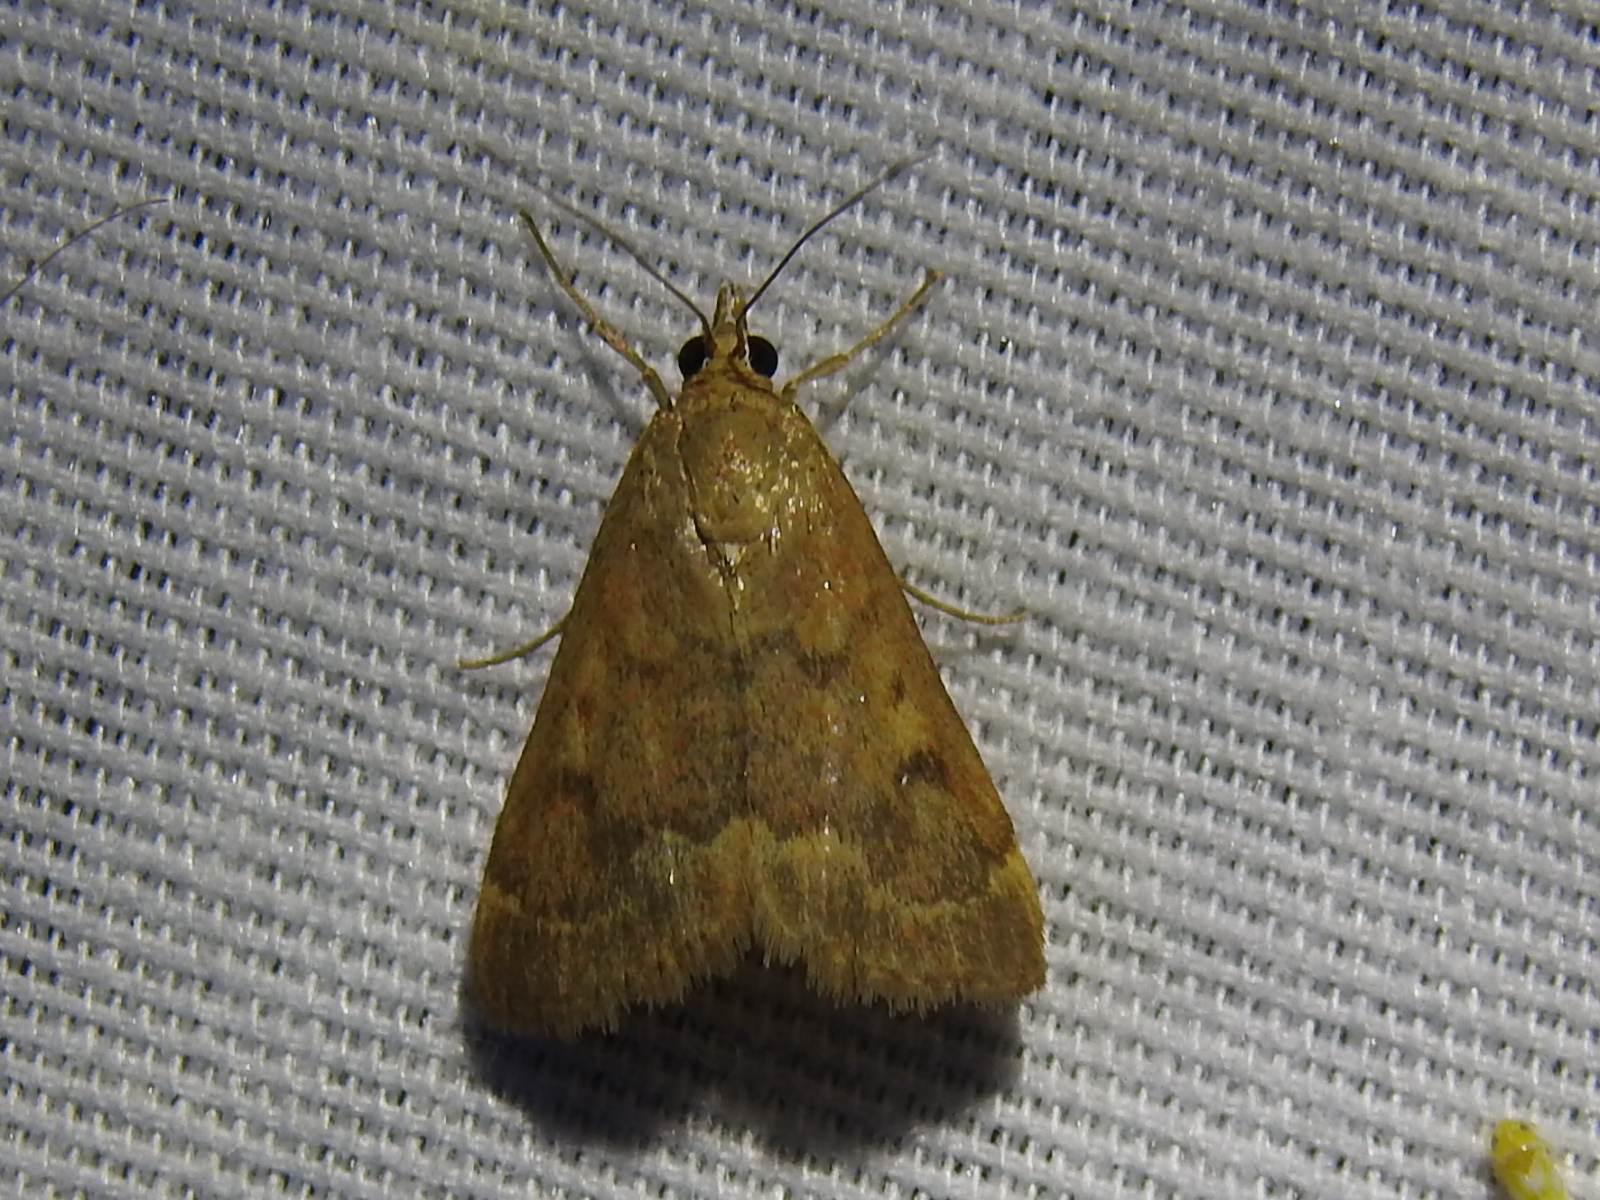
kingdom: Animalia
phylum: Arthropoda
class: Insecta
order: Lepidoptera
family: Crambidae
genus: Achyra
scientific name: Achyra rantalis
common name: Garden webworm
